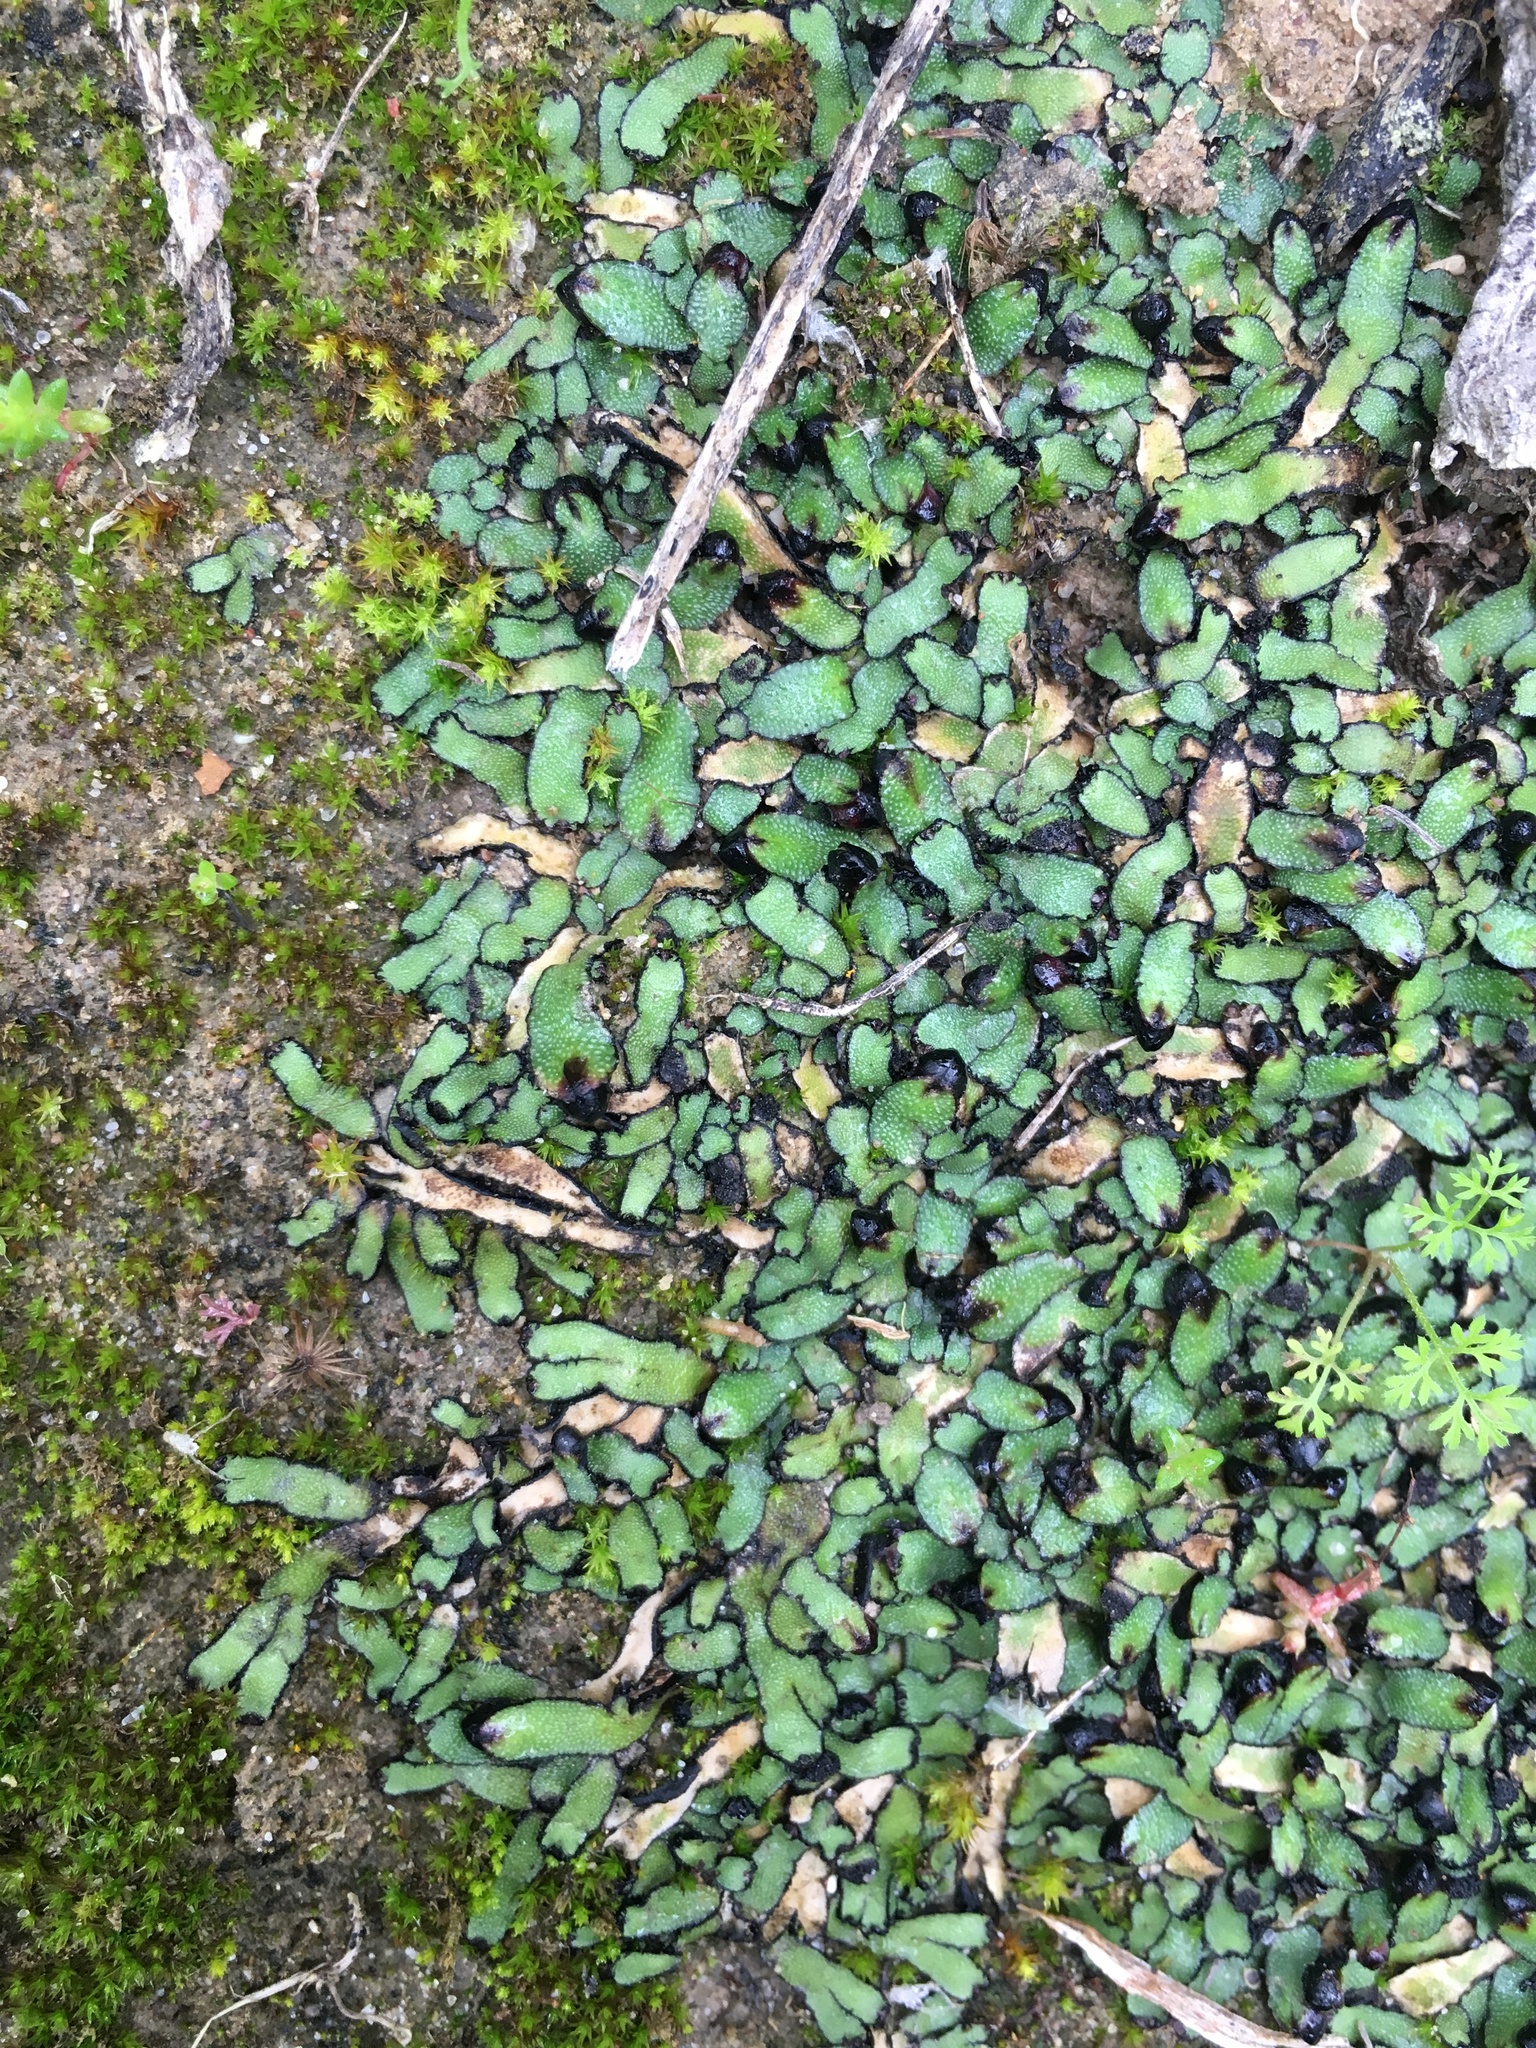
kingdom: Plantae
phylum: Marchantiophyta
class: Marchantiopsida
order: Marchantiales
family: Targioniaceae
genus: Targionia
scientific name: Targionia hypophylla
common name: Orobus-seed liverwort
